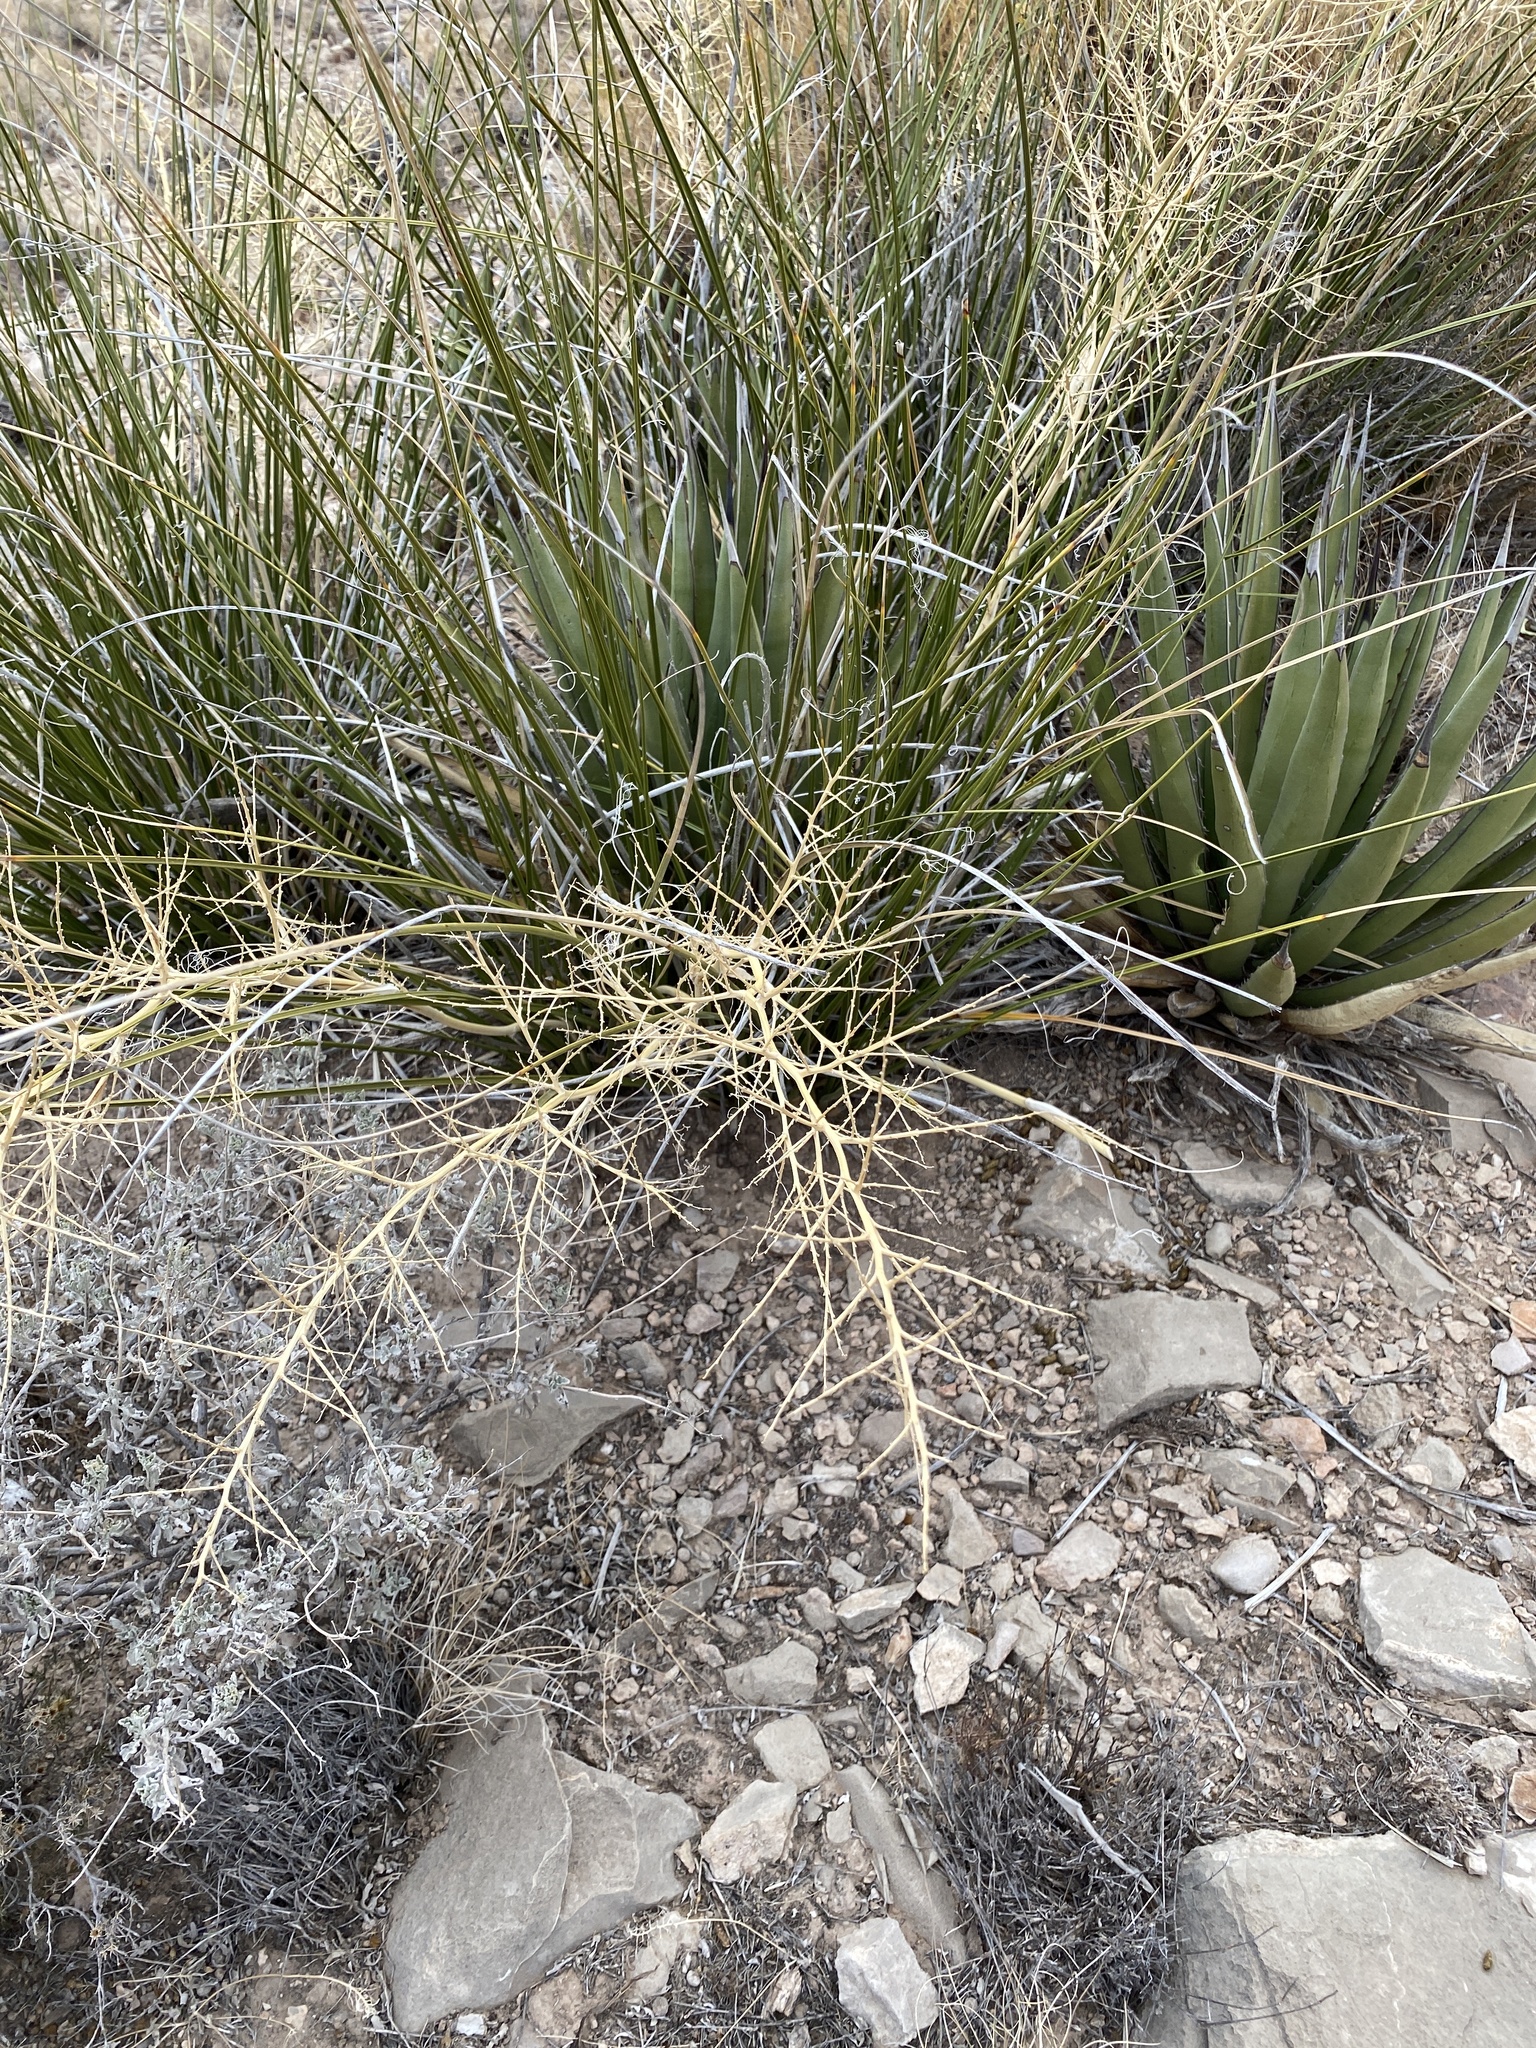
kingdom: Plantae
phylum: Tracheophyta
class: Liliopsida
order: Asparagales
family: Asparagaceae
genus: Nolina
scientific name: Nolina microcarpa
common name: Bear-grass
